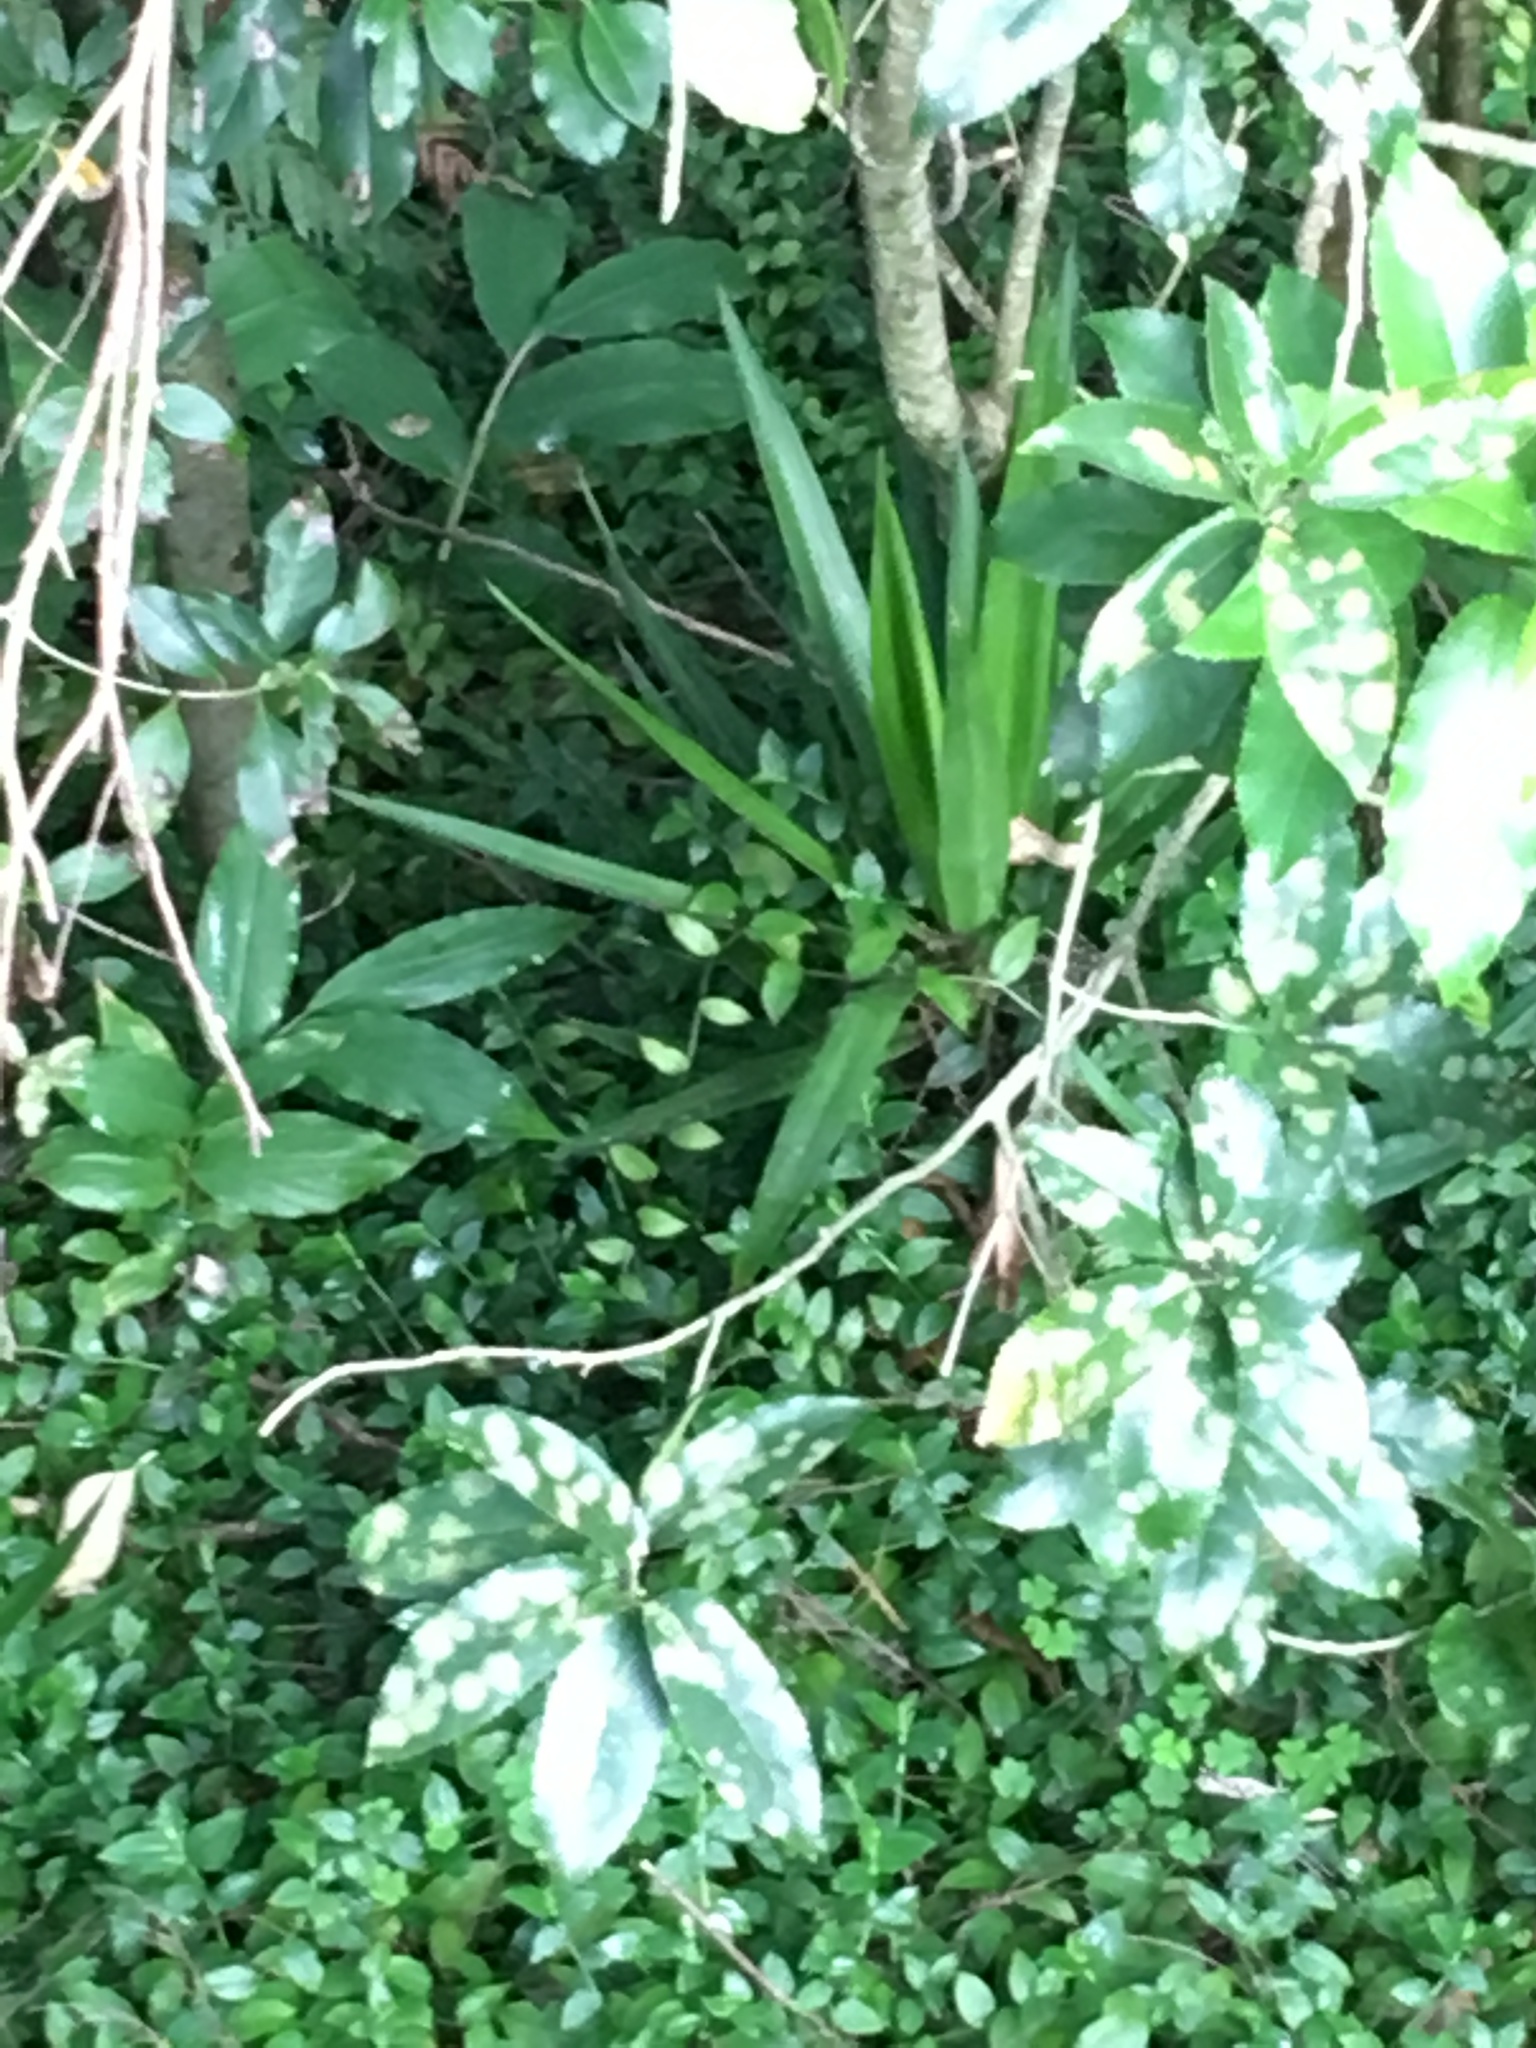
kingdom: Plantae
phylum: Tracheophyta
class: Liliopsida
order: Zingiberales
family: Zingiberaceae
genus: Hedychium
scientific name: Hedychium gardnerianum
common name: Himalayan ginger
